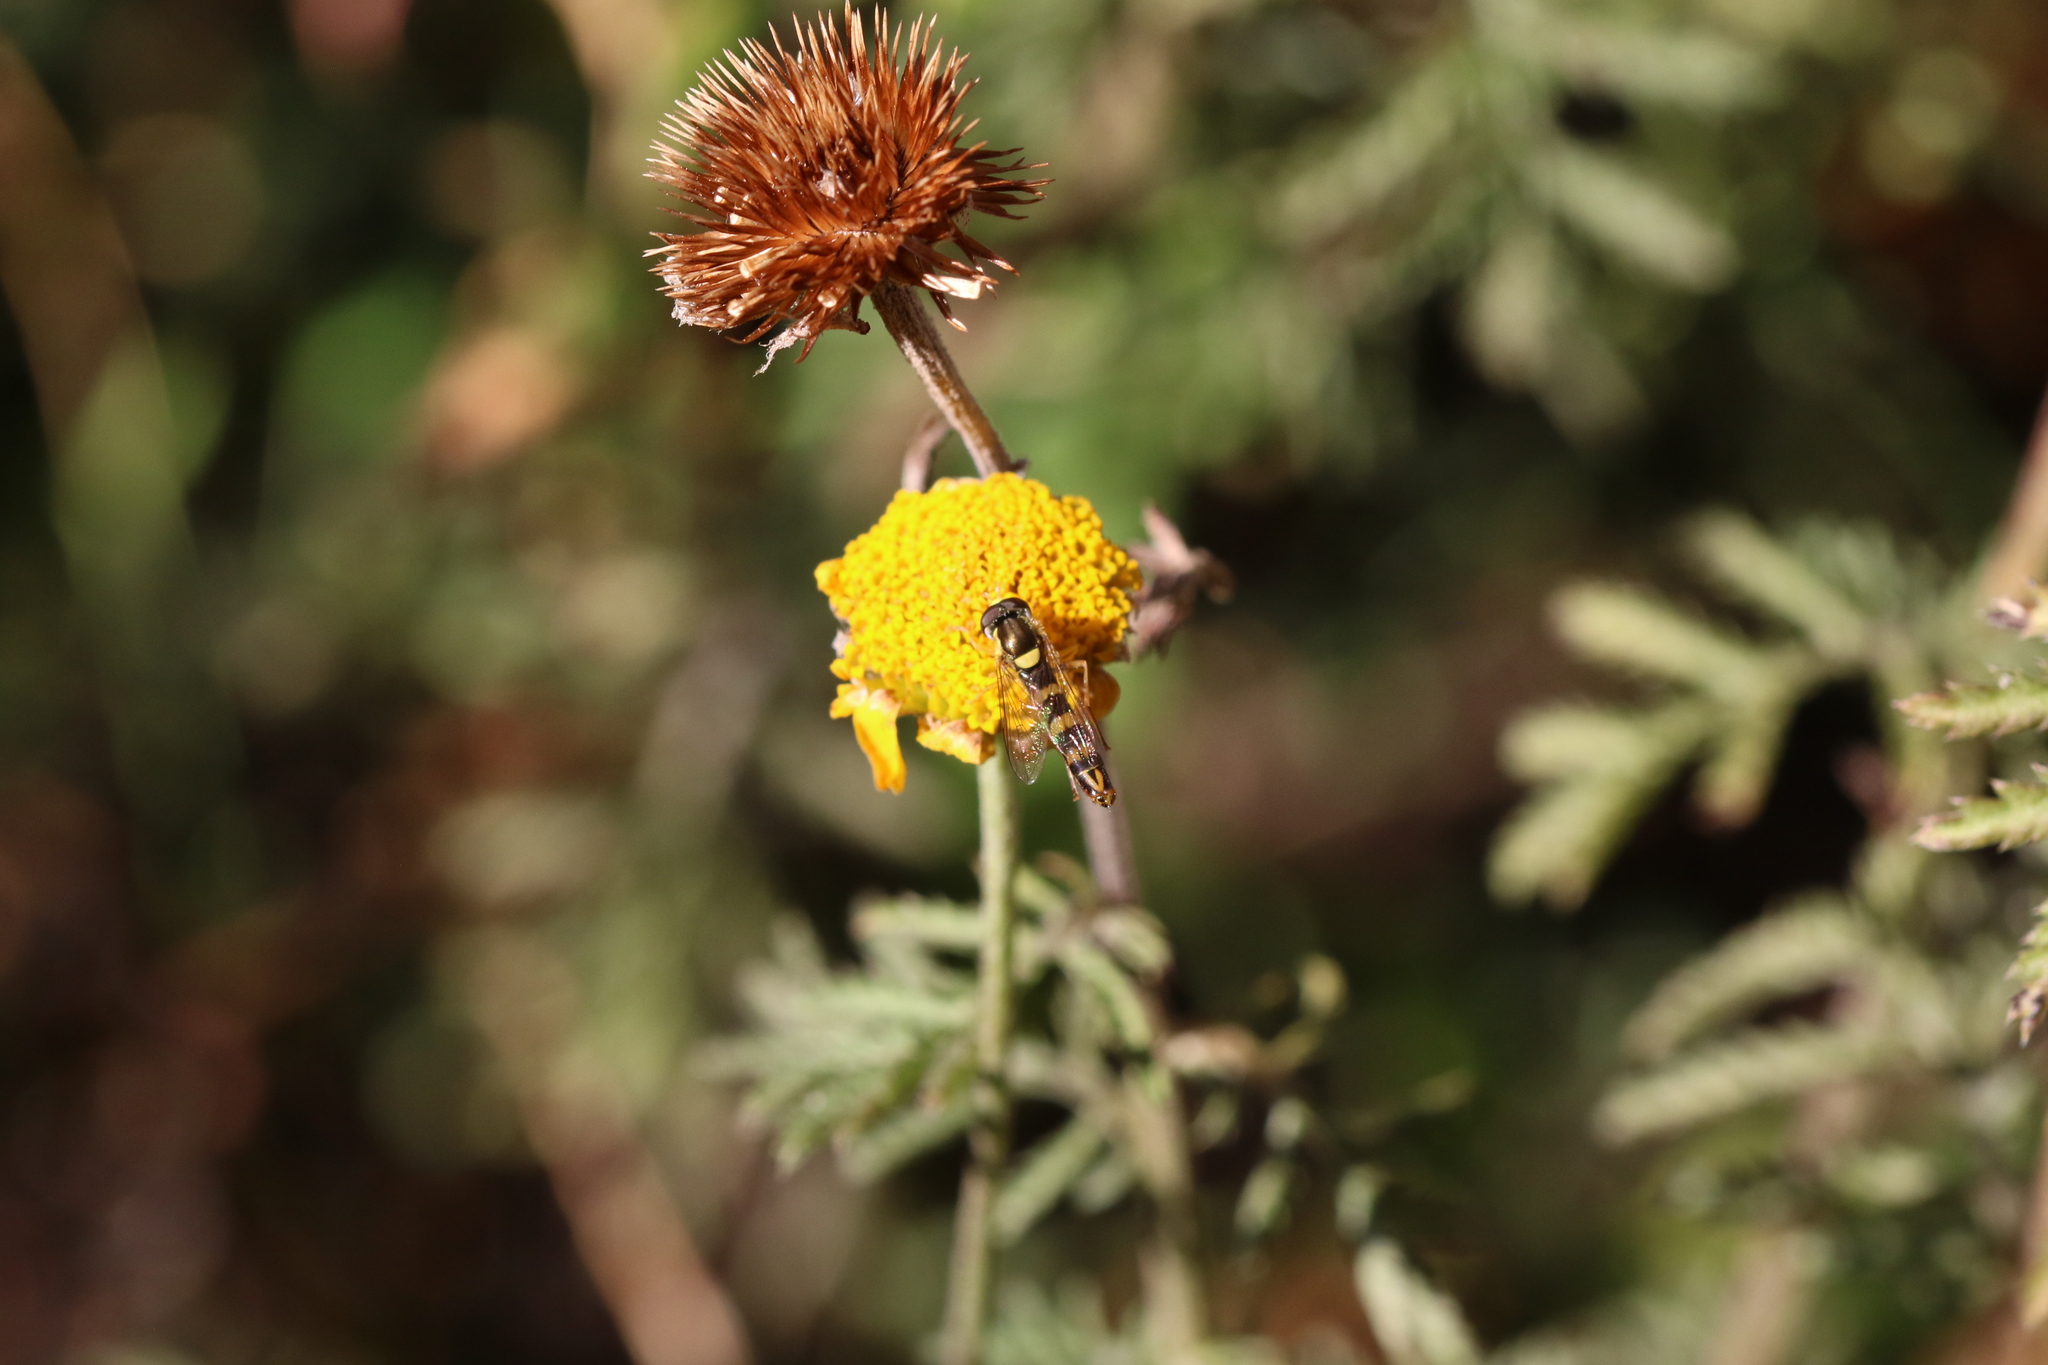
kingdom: Animalia
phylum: Arthropoda
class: Insecta
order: Diptera
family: Syrphidae
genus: Sphaerophoria
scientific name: Sphaerophoria scripta
